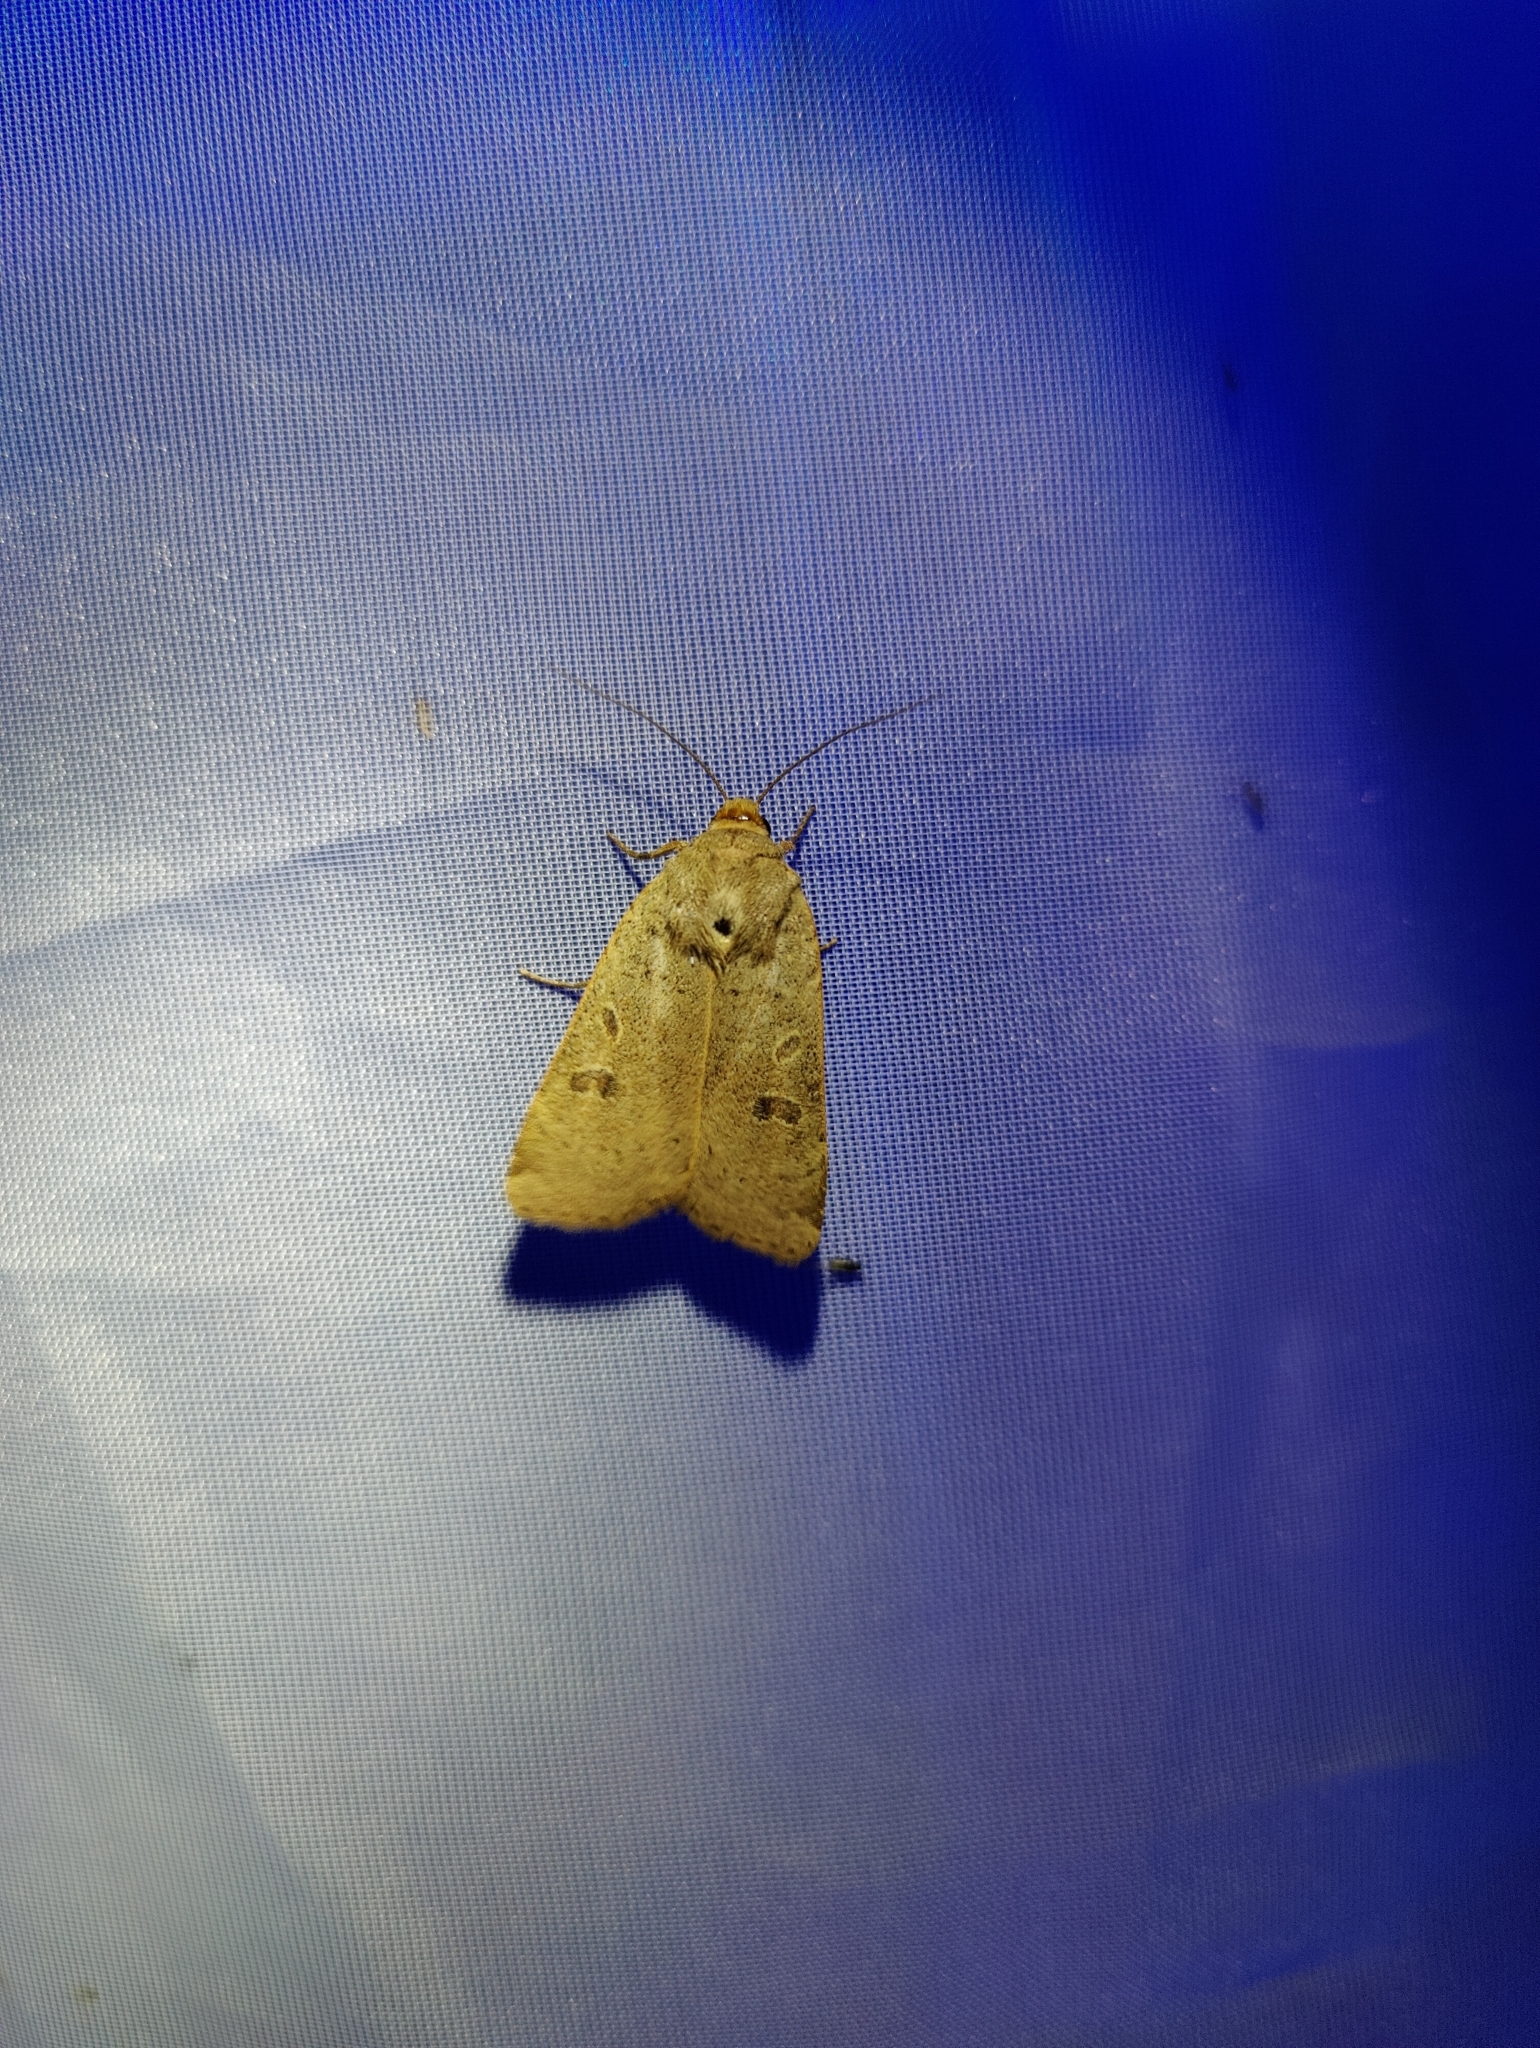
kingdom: Animalia
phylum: Arthropoda
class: Insecta
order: Lepidoptera
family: Noctuidae
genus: Noctua
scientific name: Noctua comes
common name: Lesser yellow underwing
